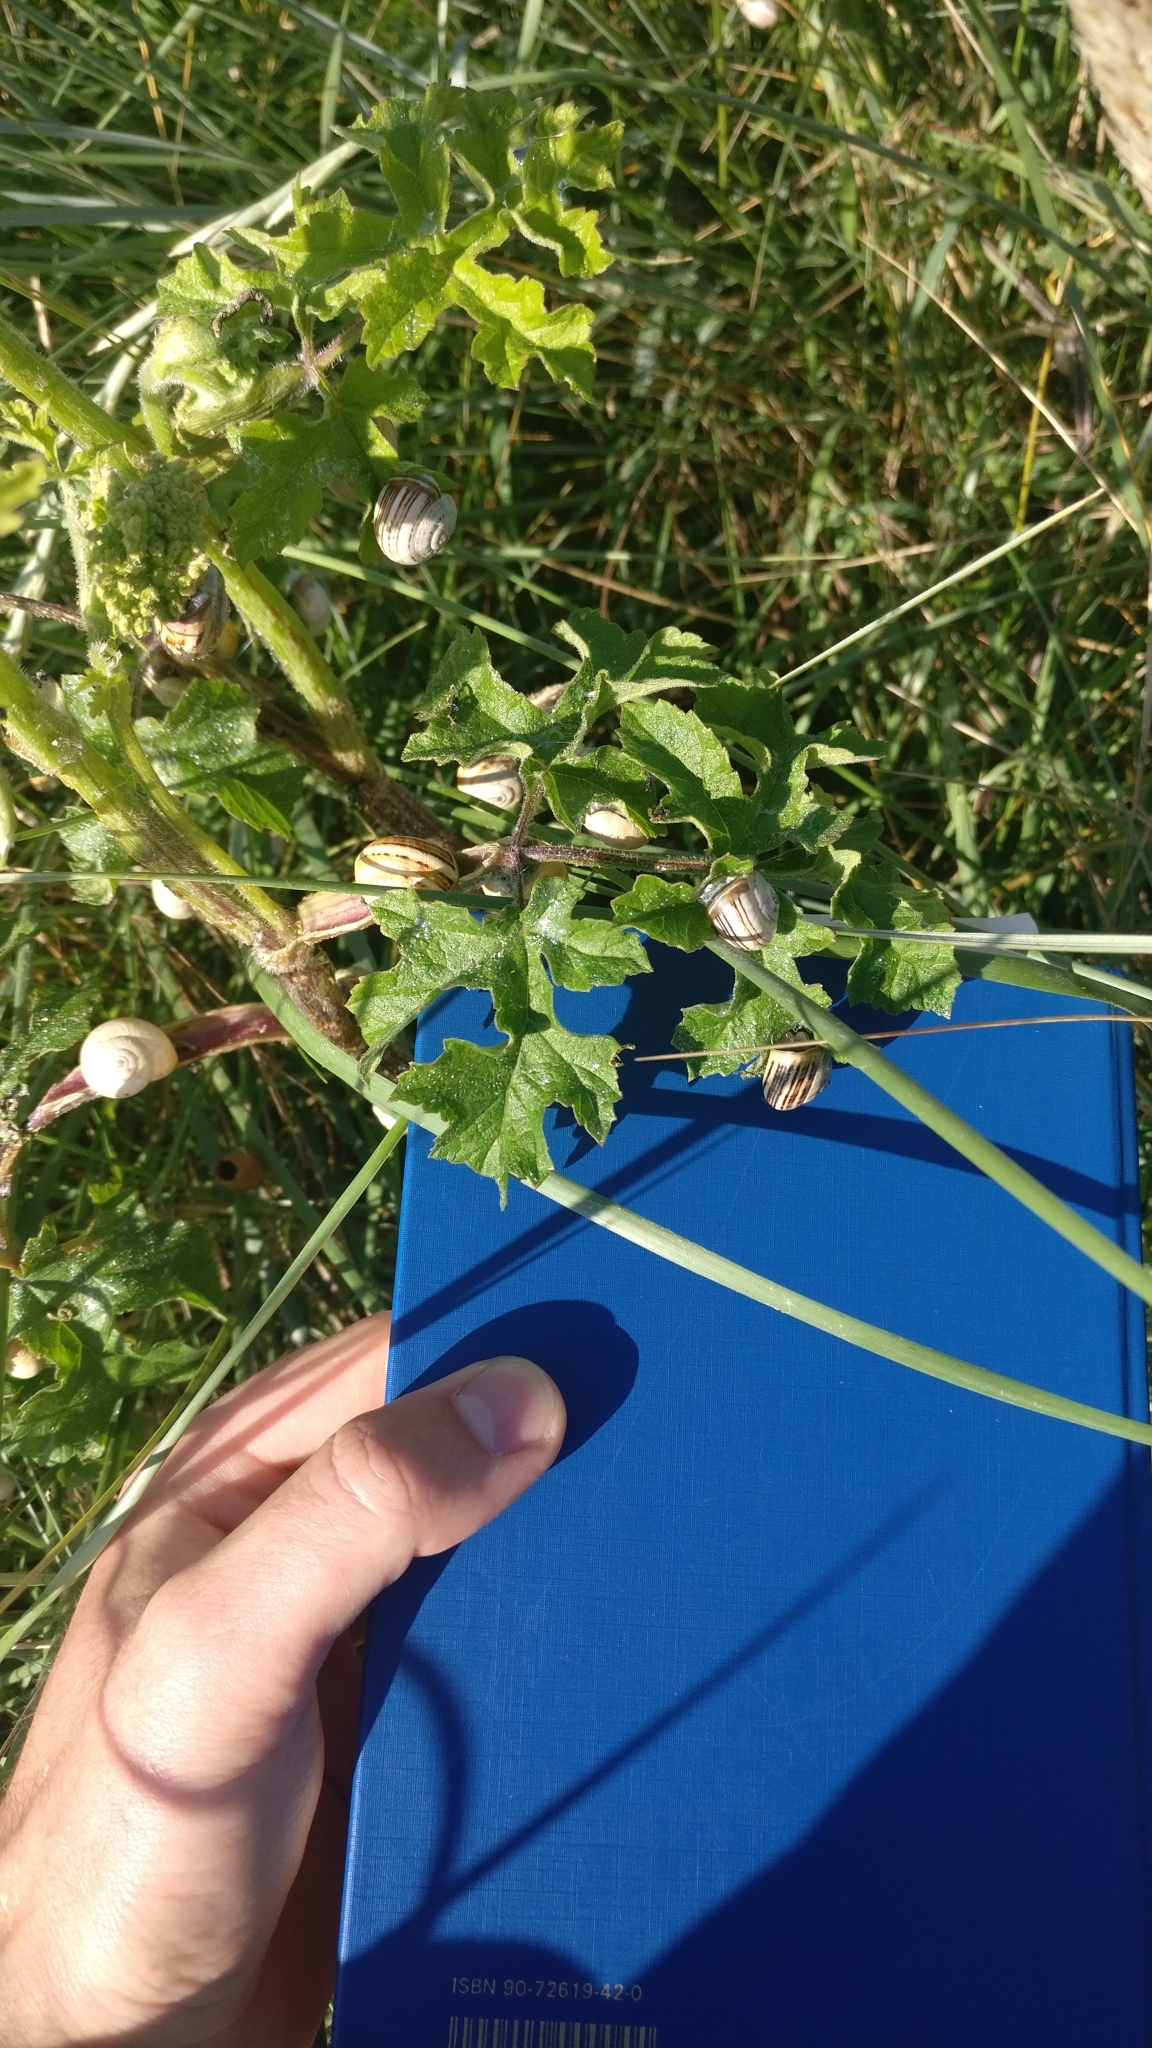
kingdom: Plantae
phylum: Tracheophyta
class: Magnoliopsida
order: Apiales
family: Apiaceae
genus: Heracleum
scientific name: Heracleum sphondylium
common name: Hogweed
